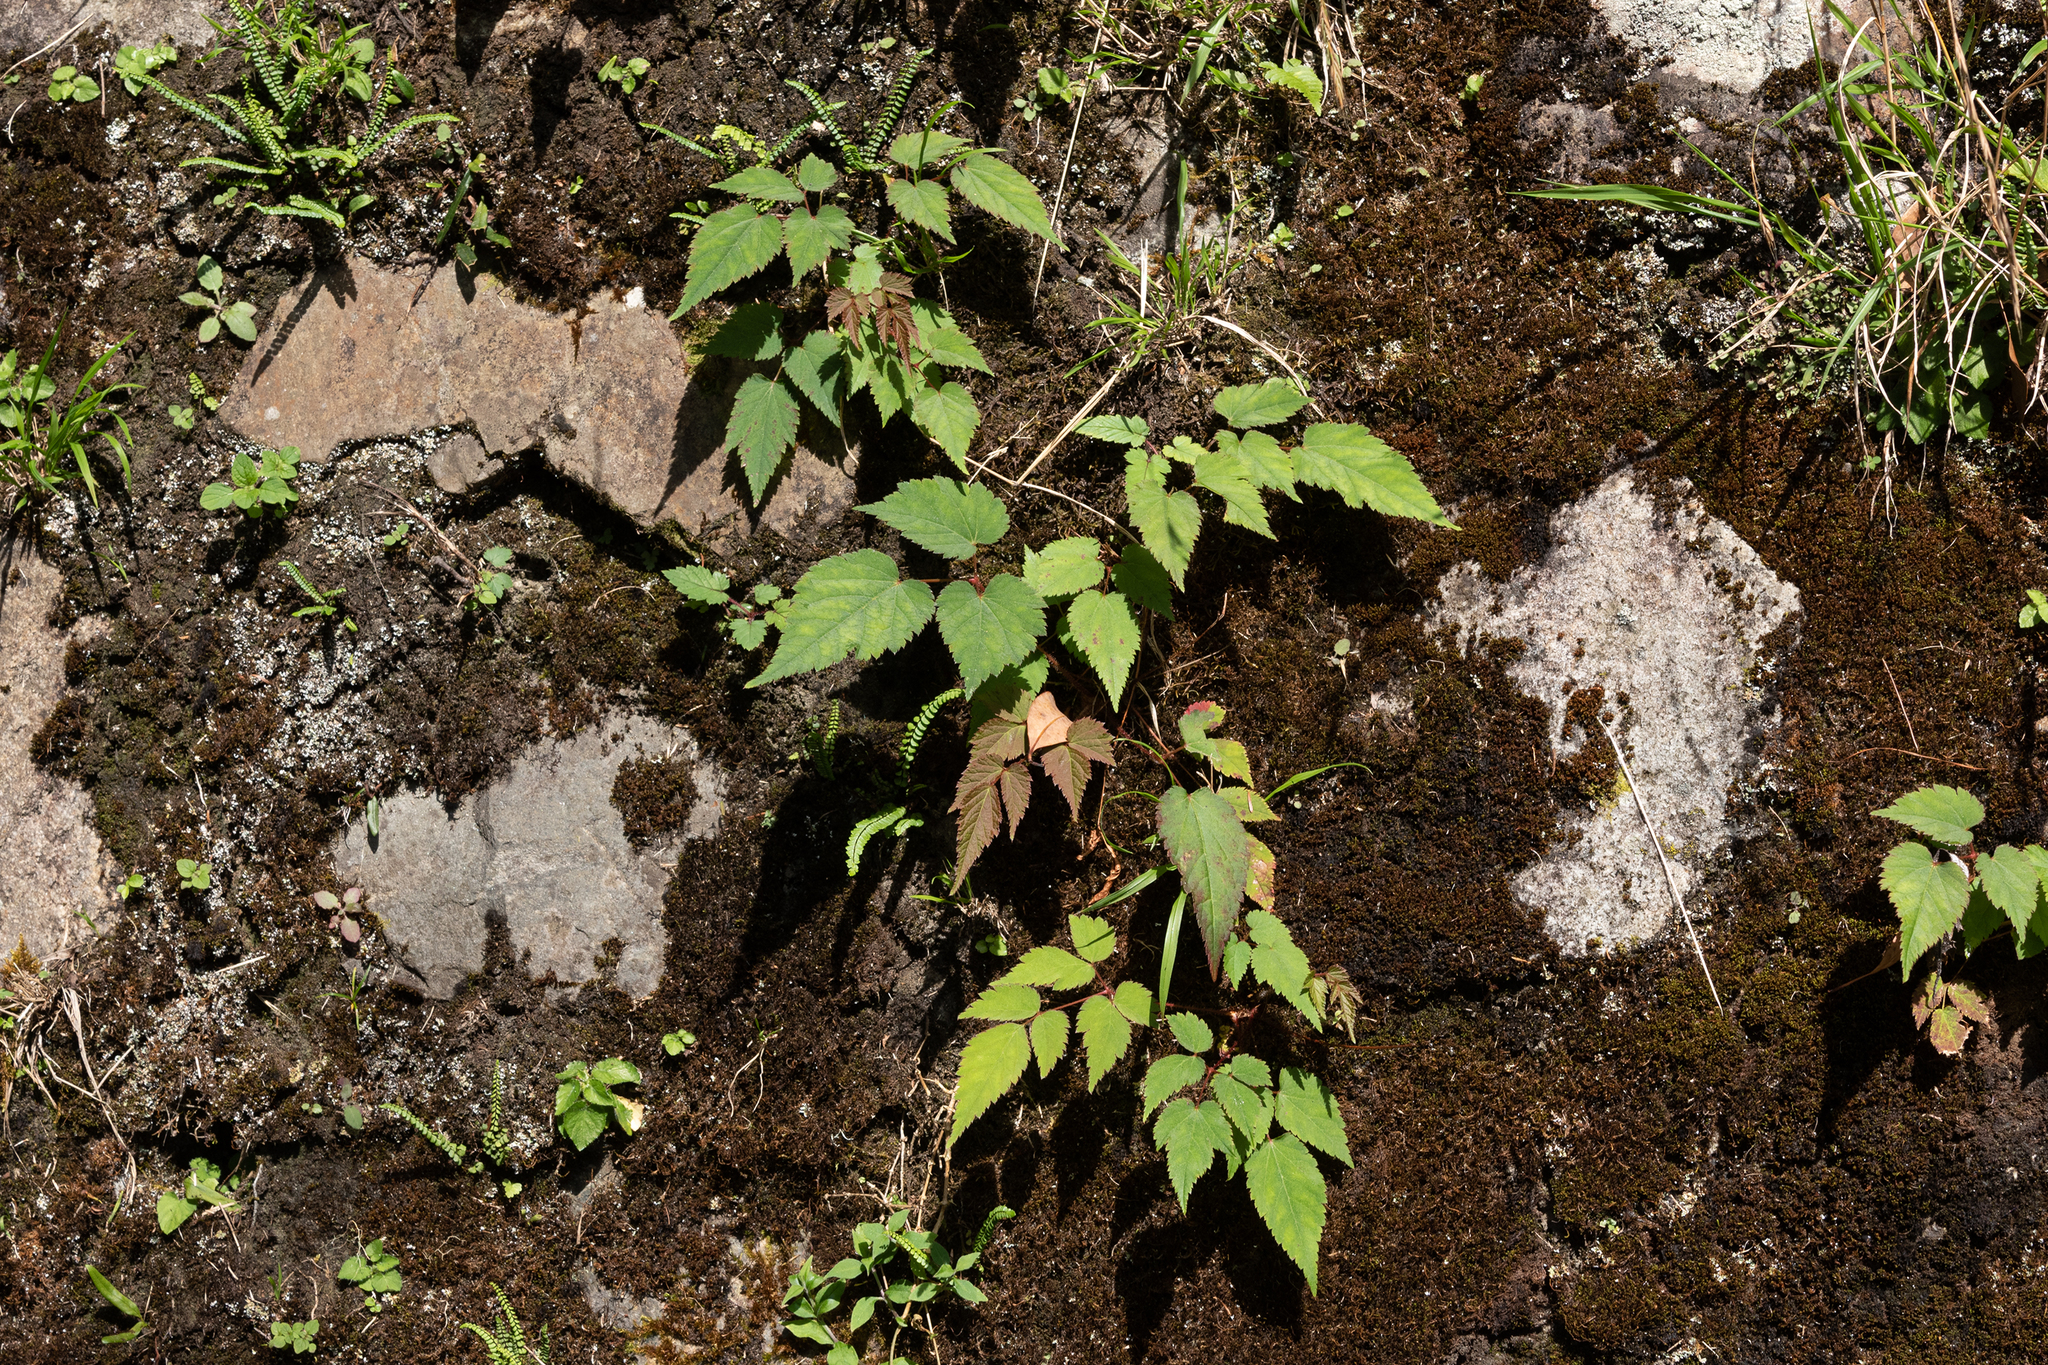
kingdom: Plantae
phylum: Tracheophyta
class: Magnoliopsida
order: Saxifragales
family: Saxifragaceae
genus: Astilbe
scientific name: Astilbe longicarpa
